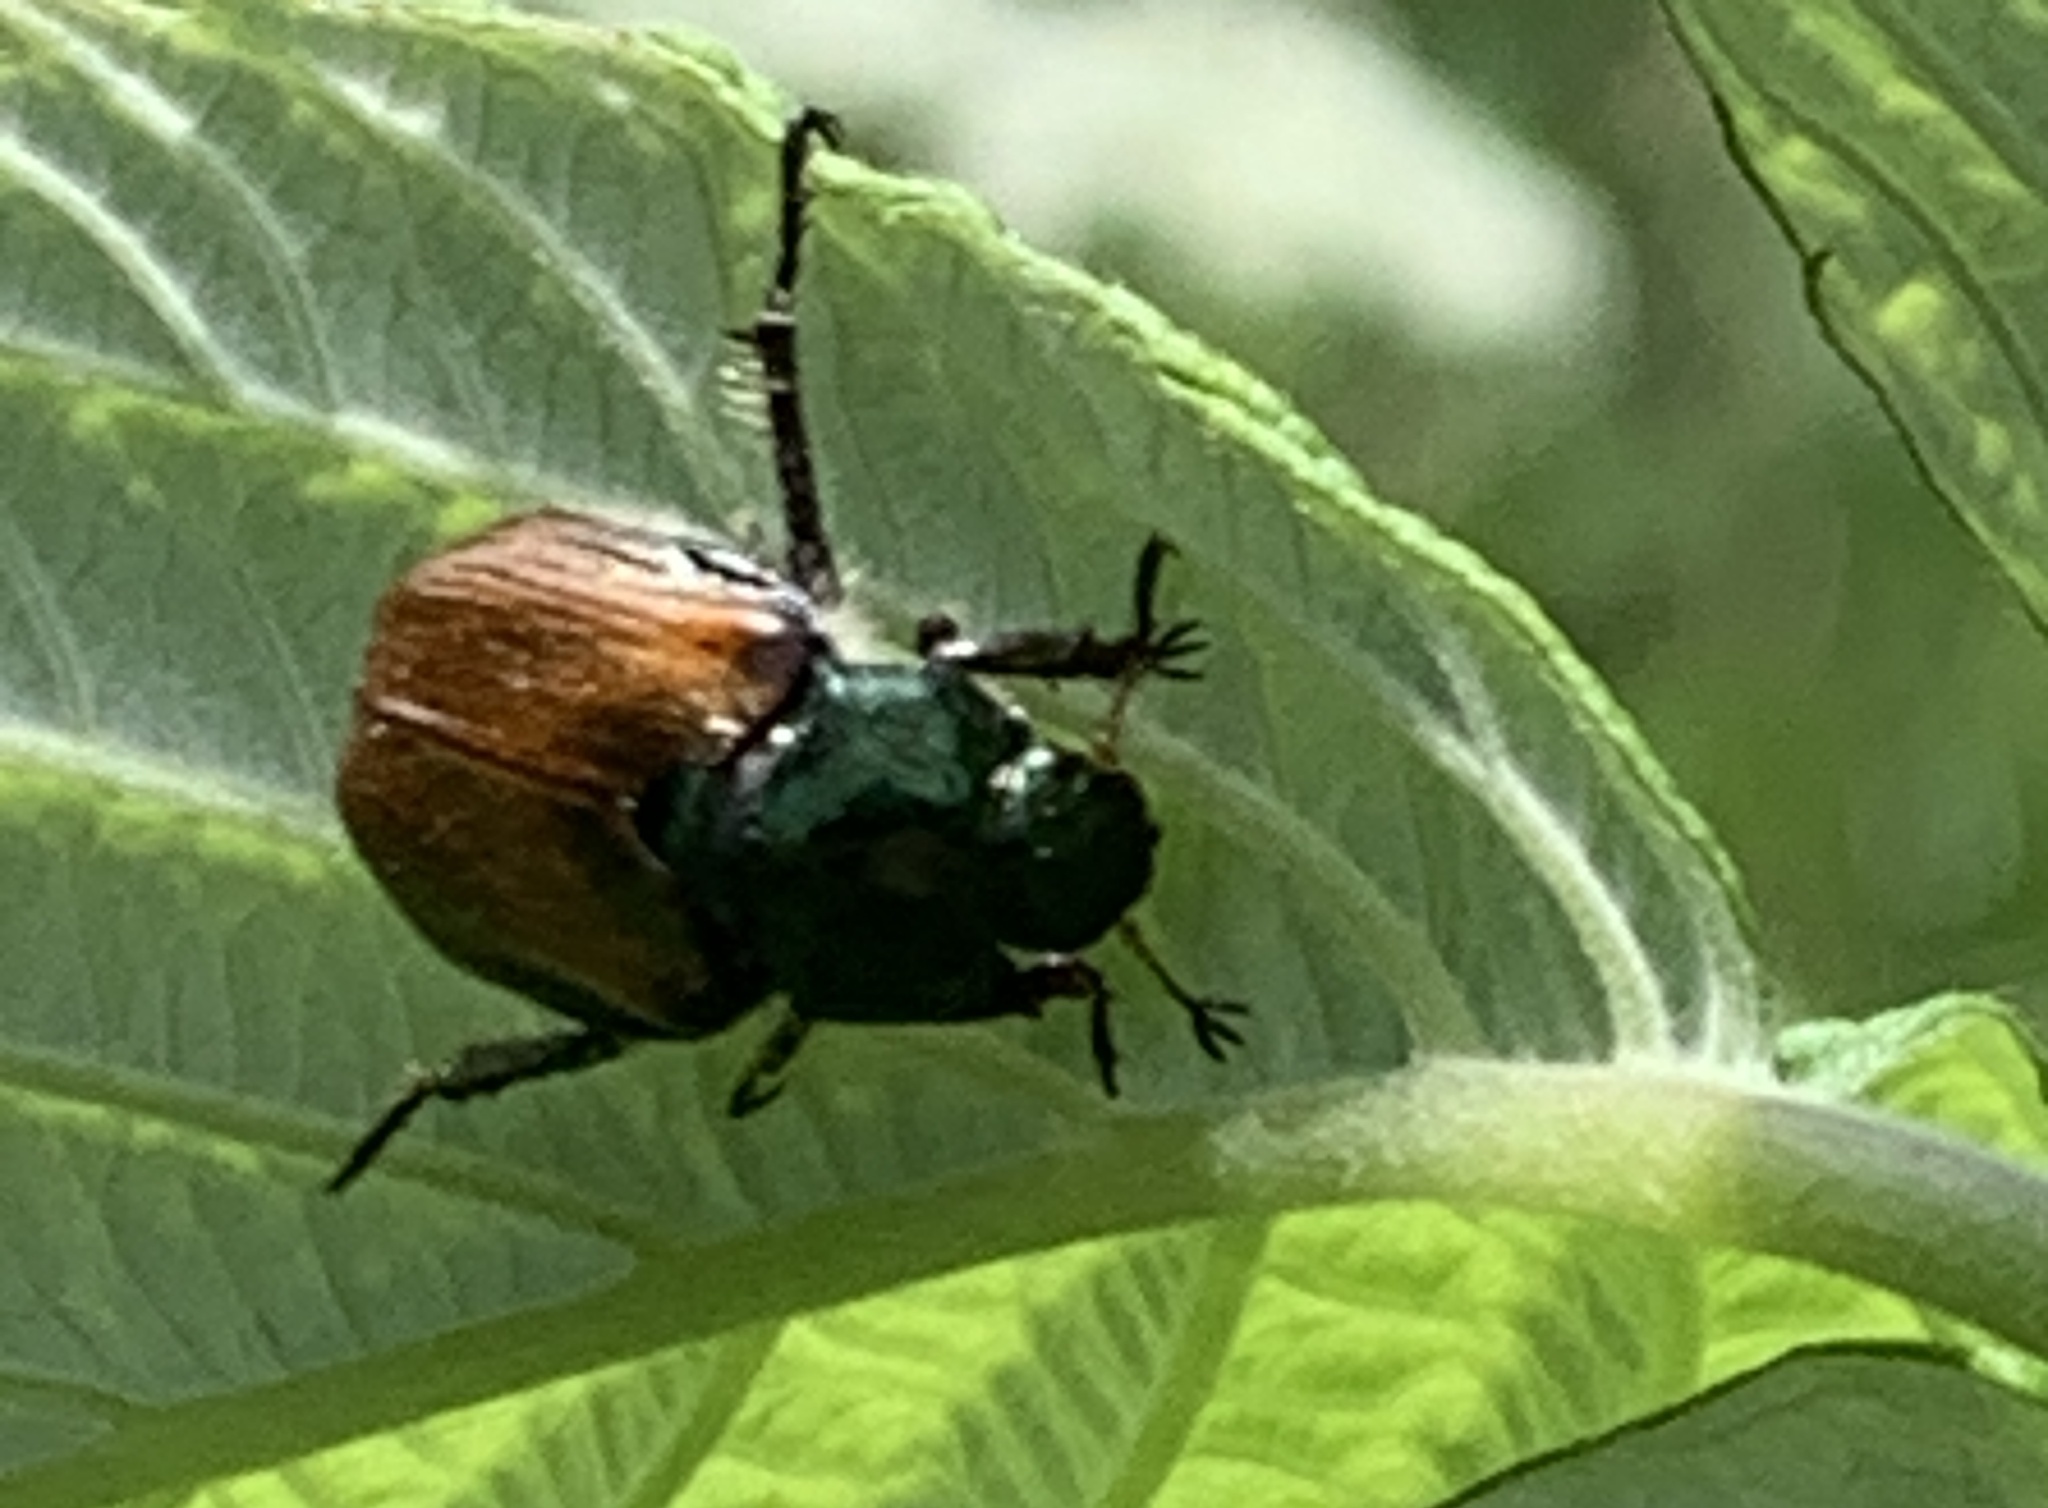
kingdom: Animalia
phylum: Arthropoda
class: Insecta
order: Coleoptera
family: Scarabaeidae
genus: Phyllopertha
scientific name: Phyllopertha horticola
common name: Garden chafer
